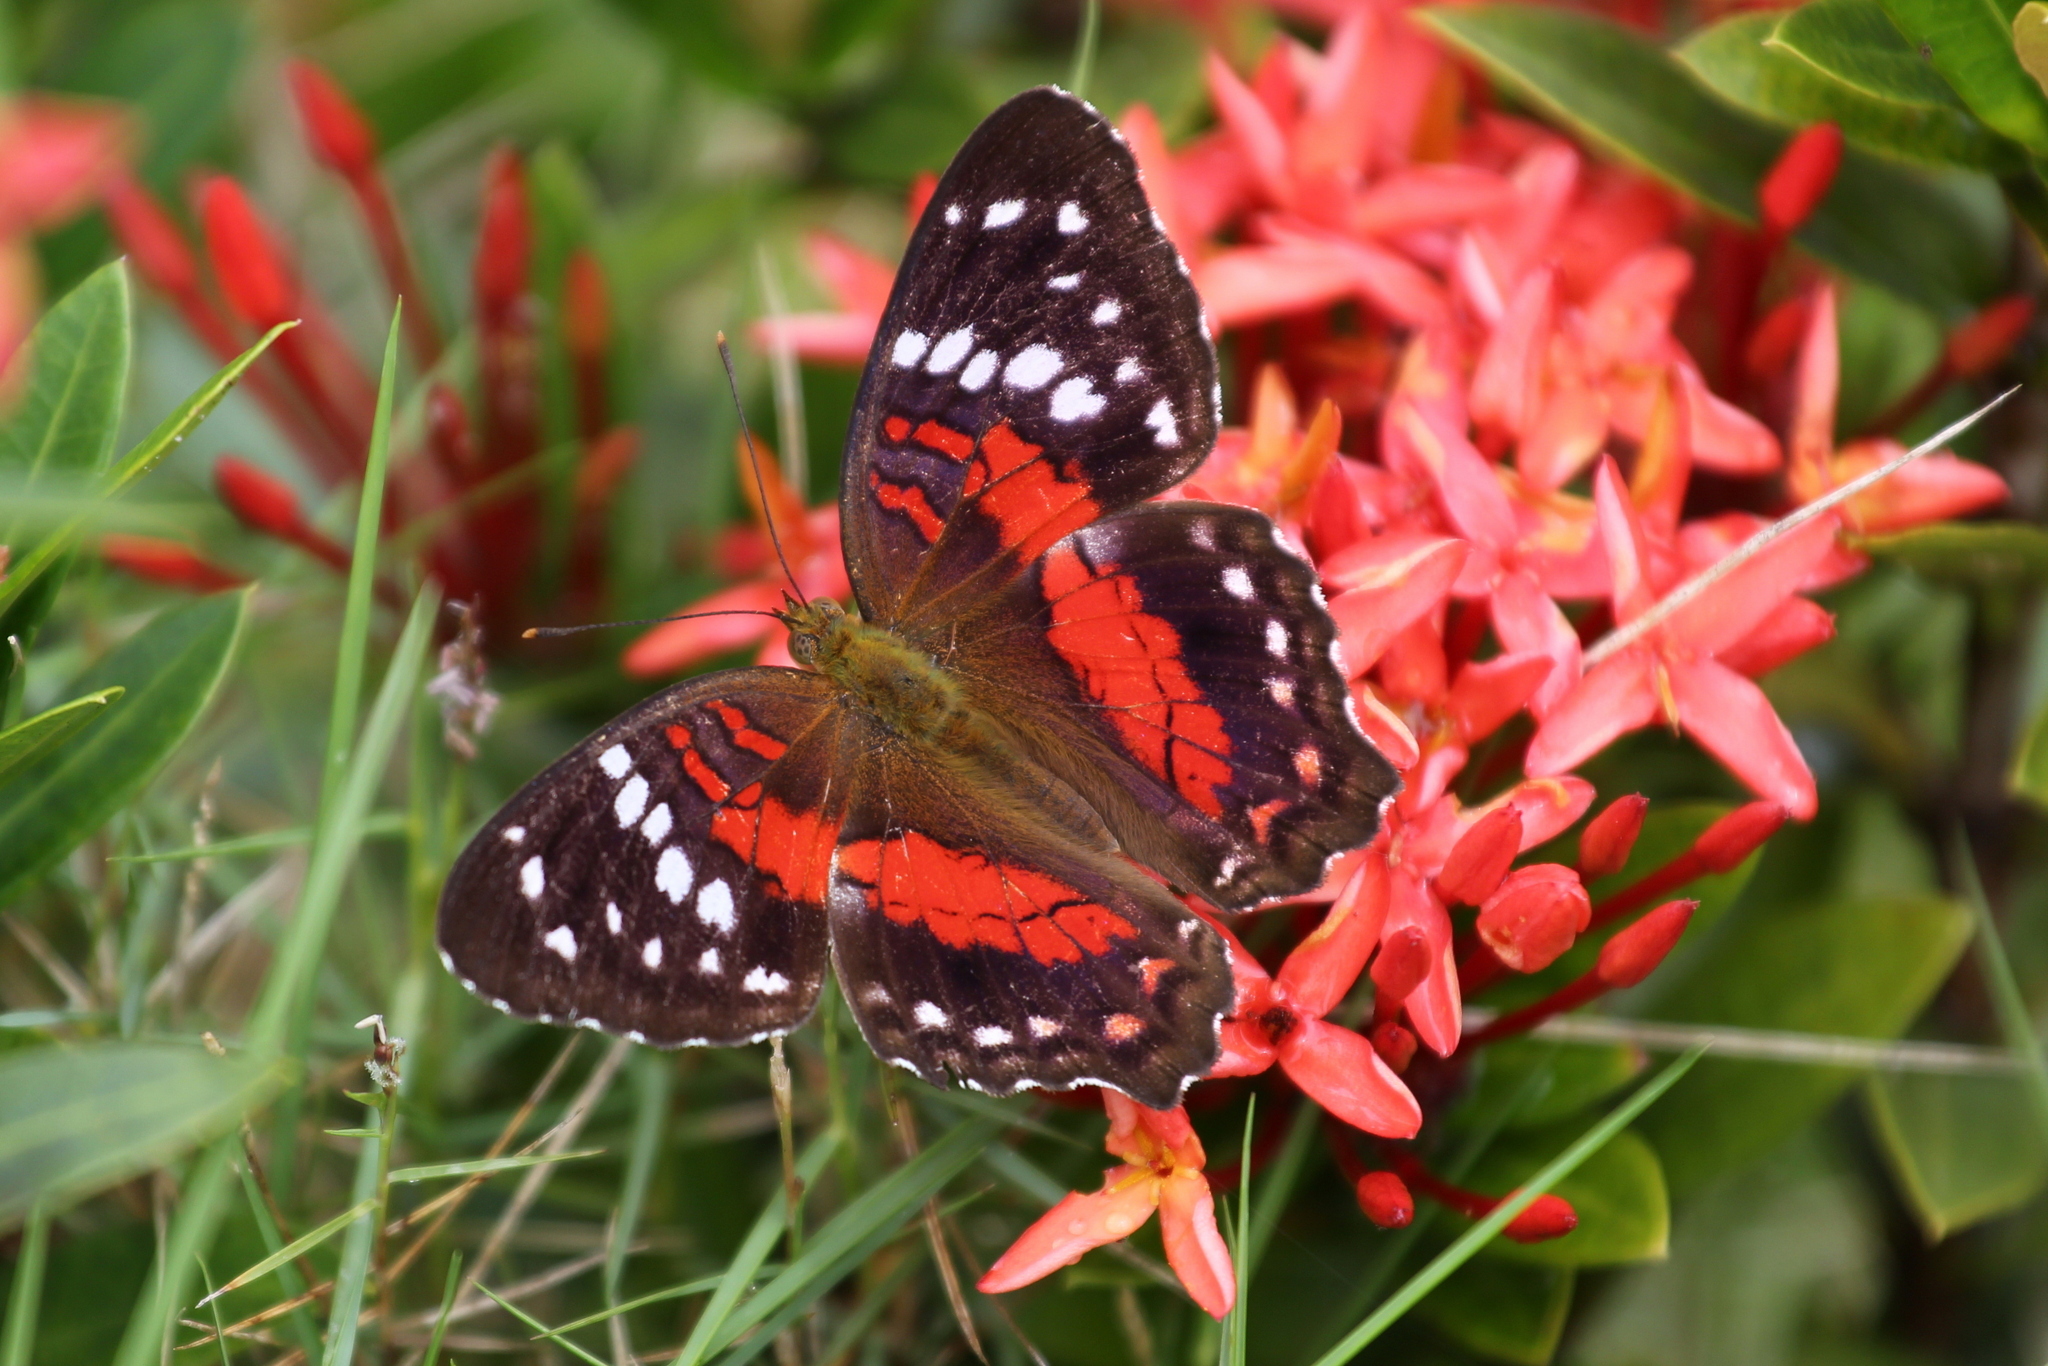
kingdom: Animalia
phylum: Arthropoda
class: Insecta
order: Lepidoptera
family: Nymphalidae
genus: Anartia
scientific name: Anartia amathea
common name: Red peacock
